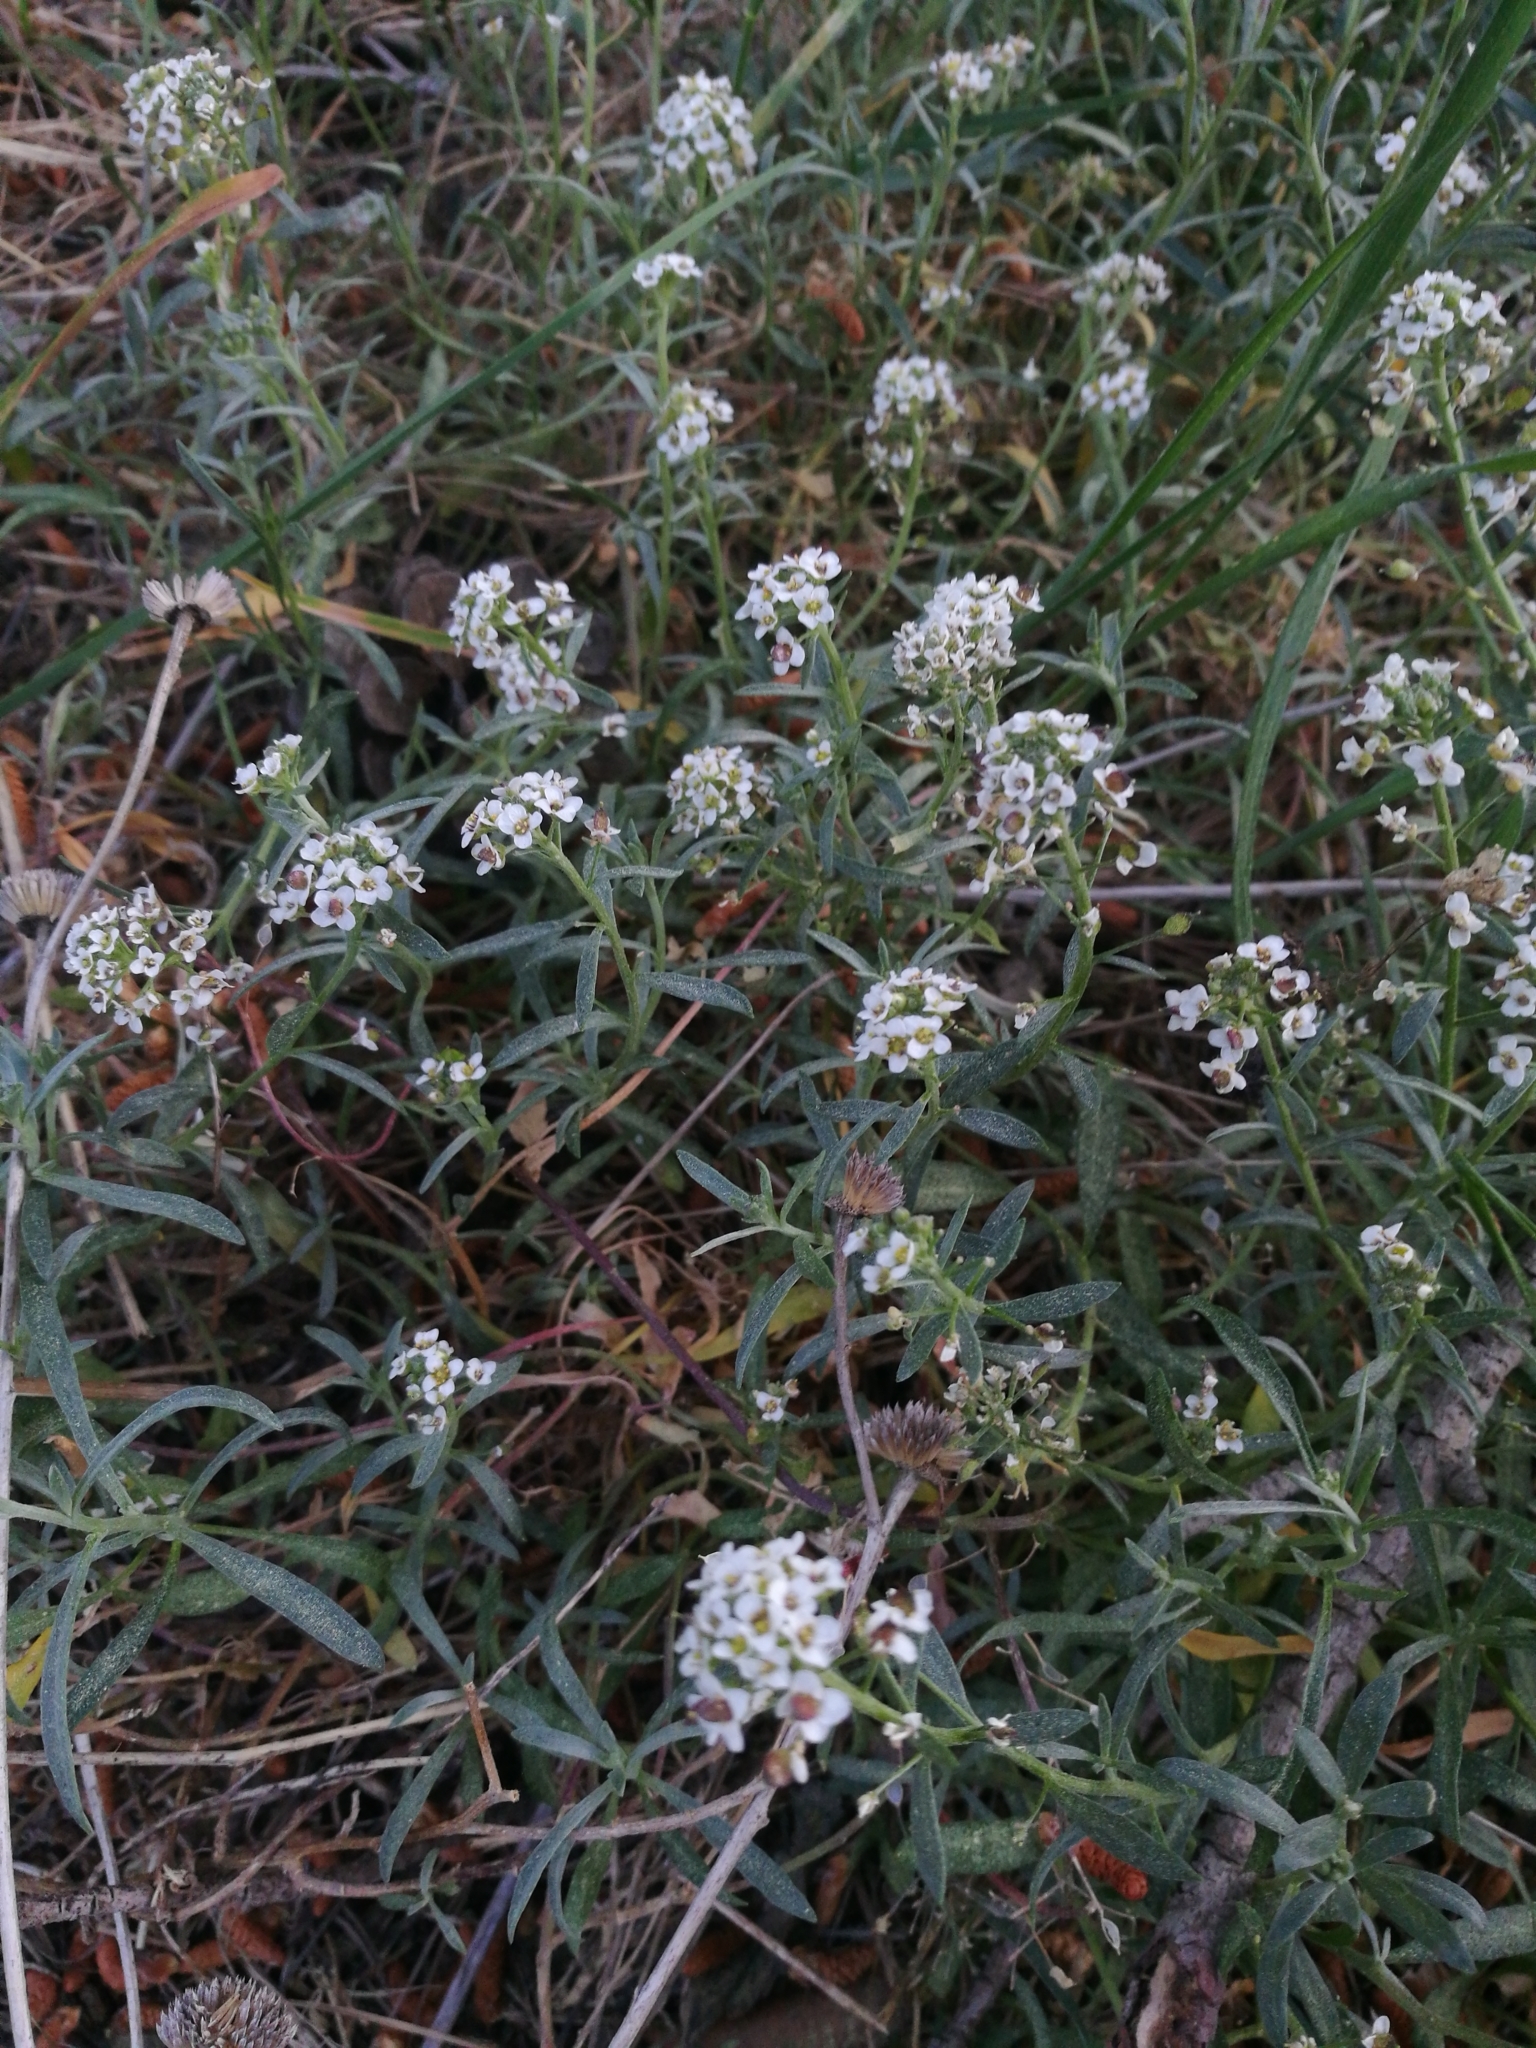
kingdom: Plantae
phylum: Tracheophyta
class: Magnoliopsida
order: Brassicales
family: Brassicaceae
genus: Lobularia
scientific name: Lobularia maritima
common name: Sweet alison
